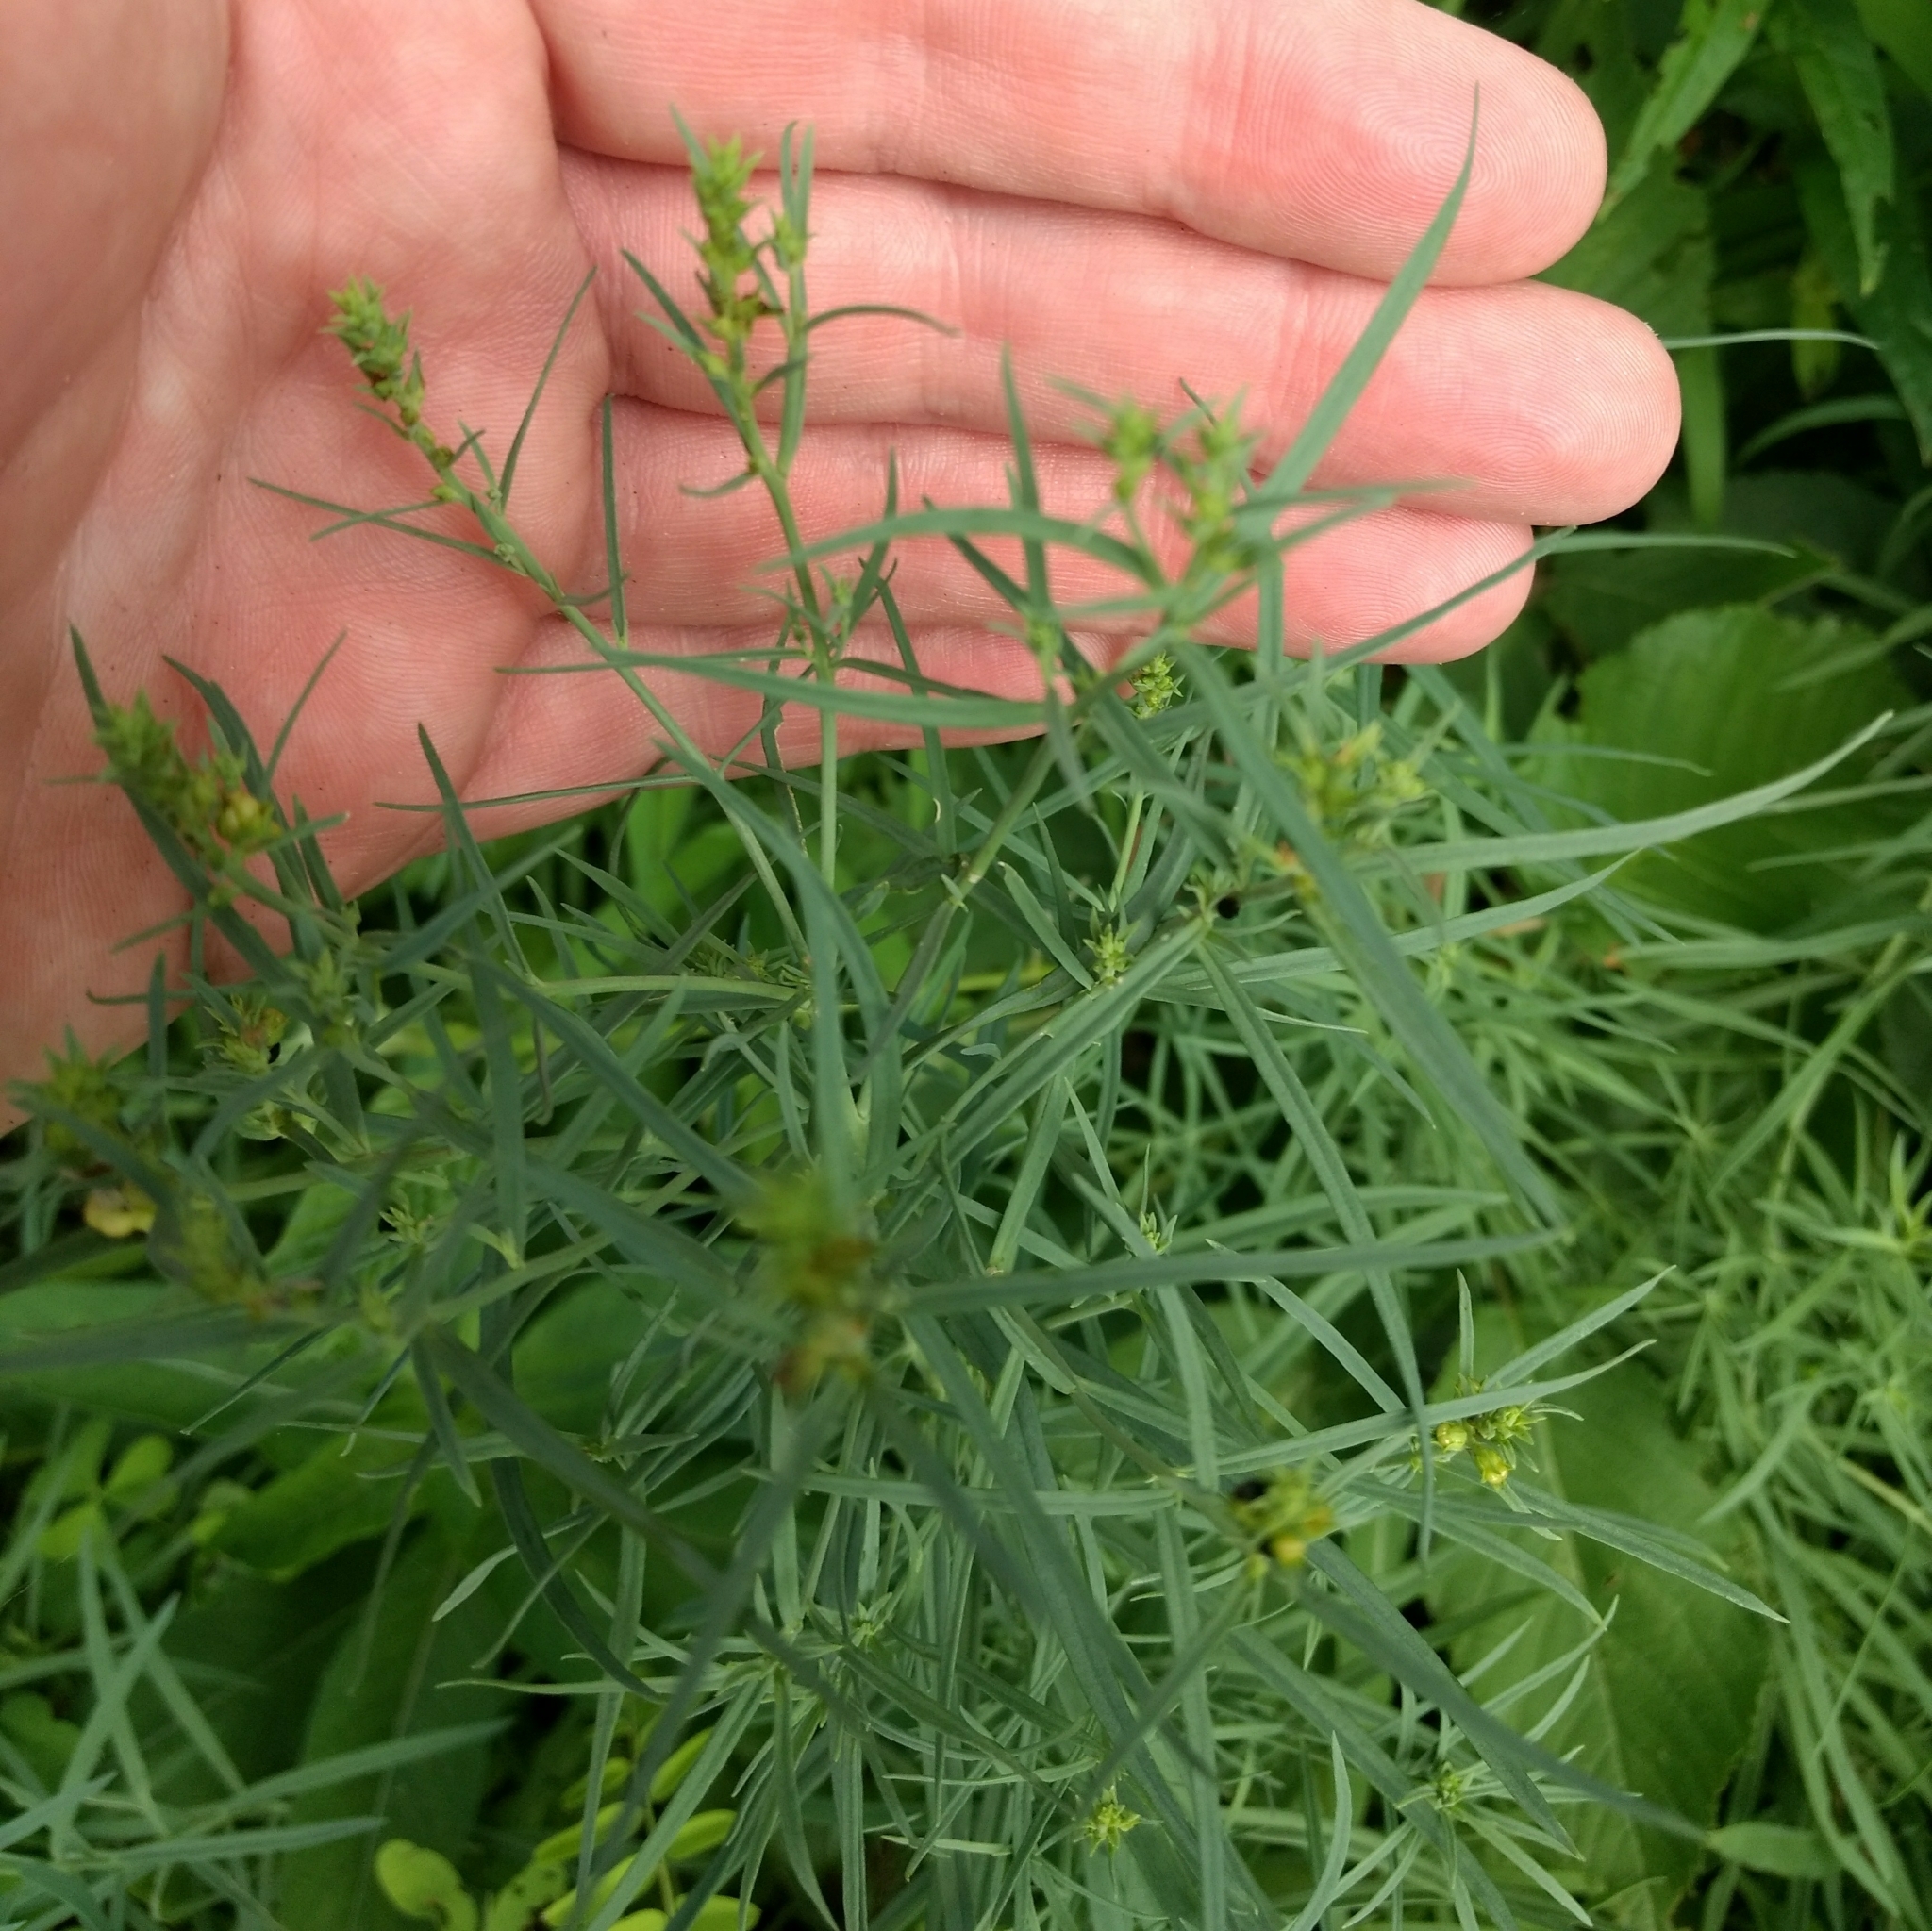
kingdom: Plantae
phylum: Tracheophyta
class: Magnoliopsida
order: Lamiales
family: Plantaginaceae
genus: Linaria
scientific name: Linaria vulgaris
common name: Butter and eggs
